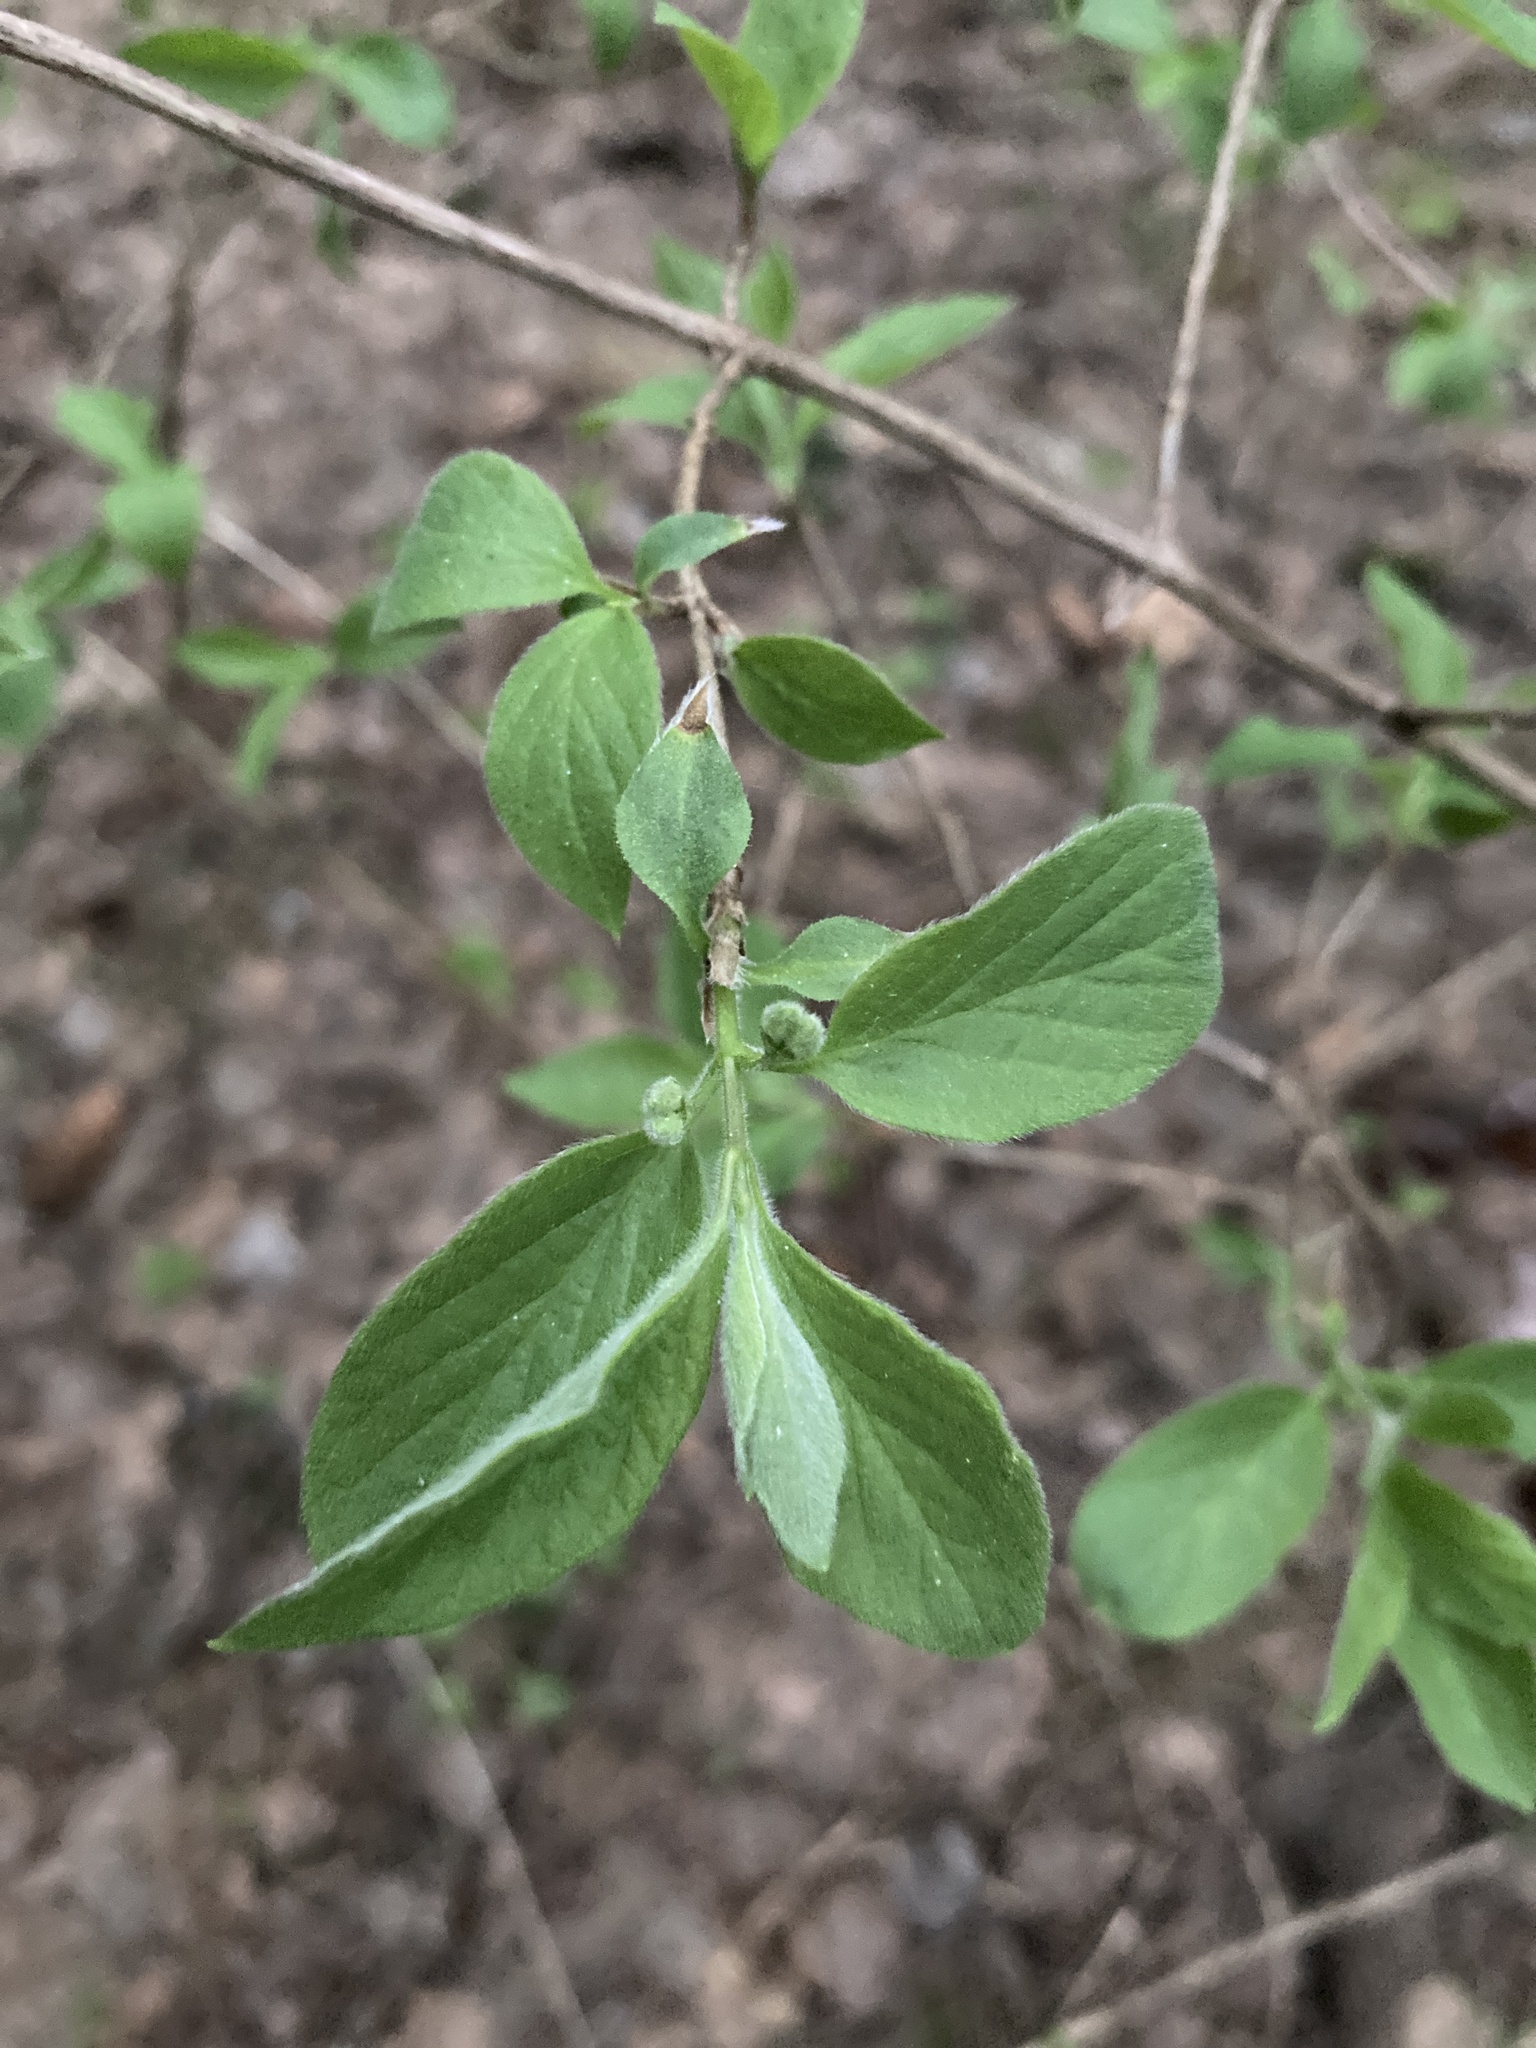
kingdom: Plantae
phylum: Tracheophyta
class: Magnoliopsida
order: Dipsacales
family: Caprifoliaceae
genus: Lonicera
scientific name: Lonicera xylosteum
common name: Fly honeysuckle
